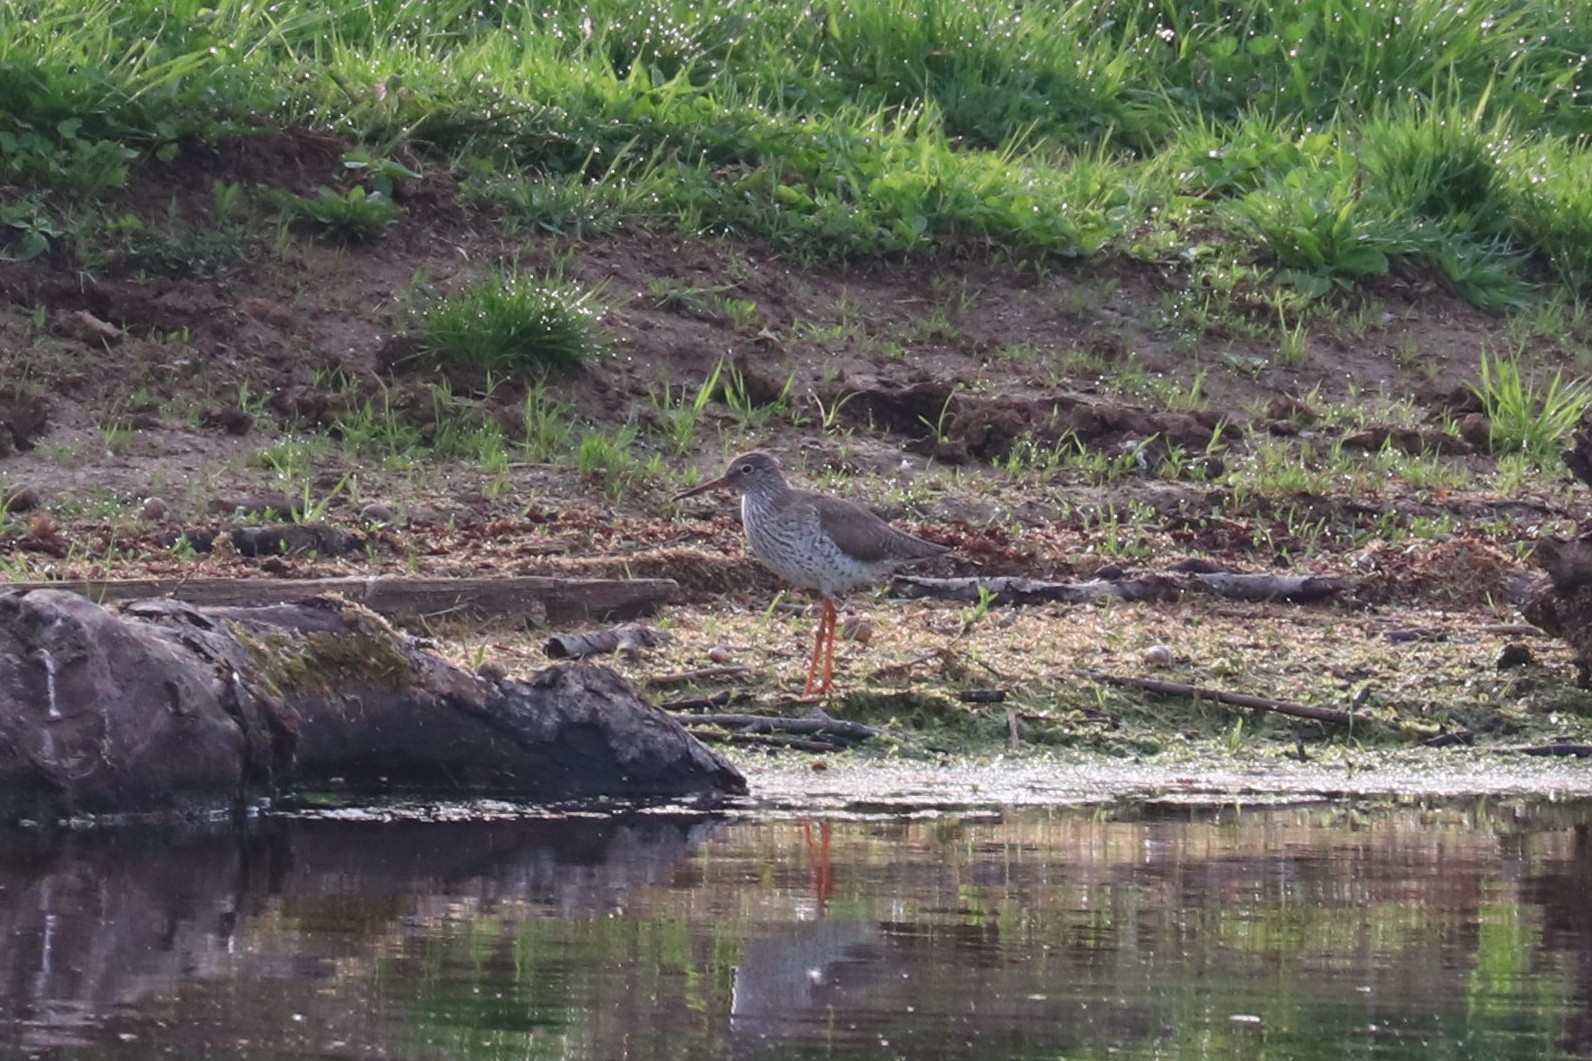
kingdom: Animalia
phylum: Chordata
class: Aves
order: Charadriiformes
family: Scolopacidae
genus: Tringa
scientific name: Tringa totanus
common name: Common redshank
